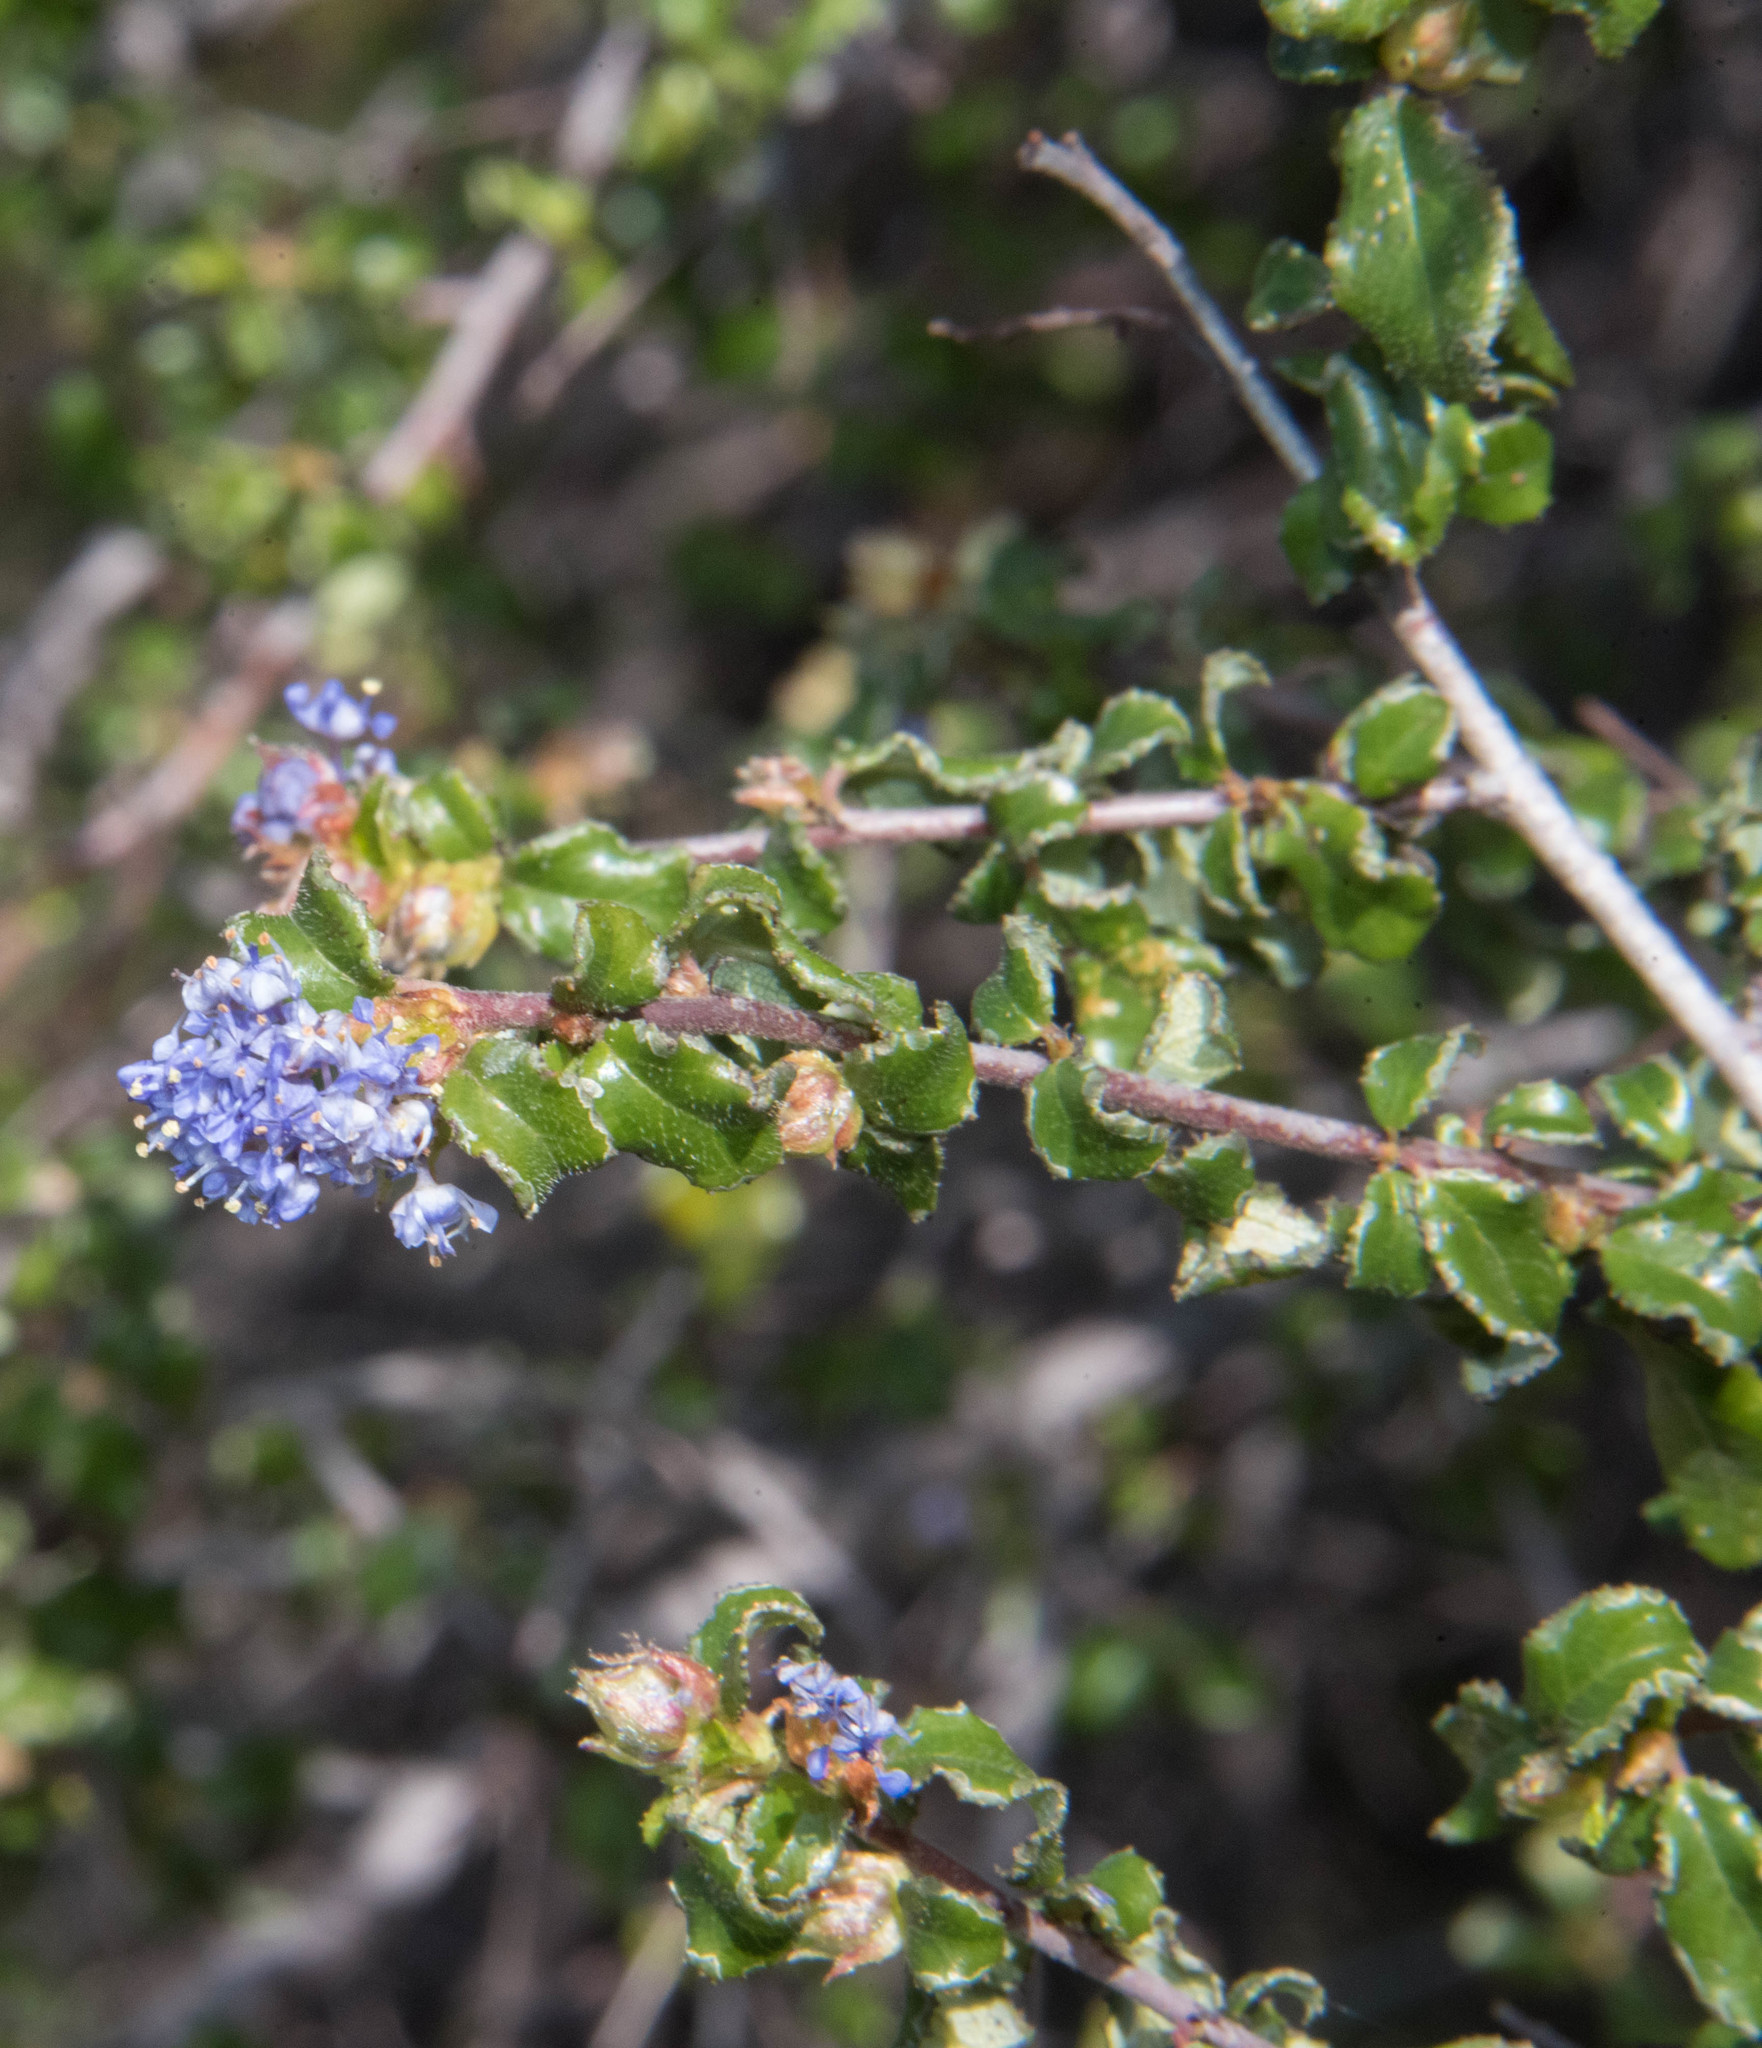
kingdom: Plantae
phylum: Tracheophyta
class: Magnoliopsida
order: Rosales
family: Rhamnaceae
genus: Ceanothus
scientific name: Ceanothus foliosus
